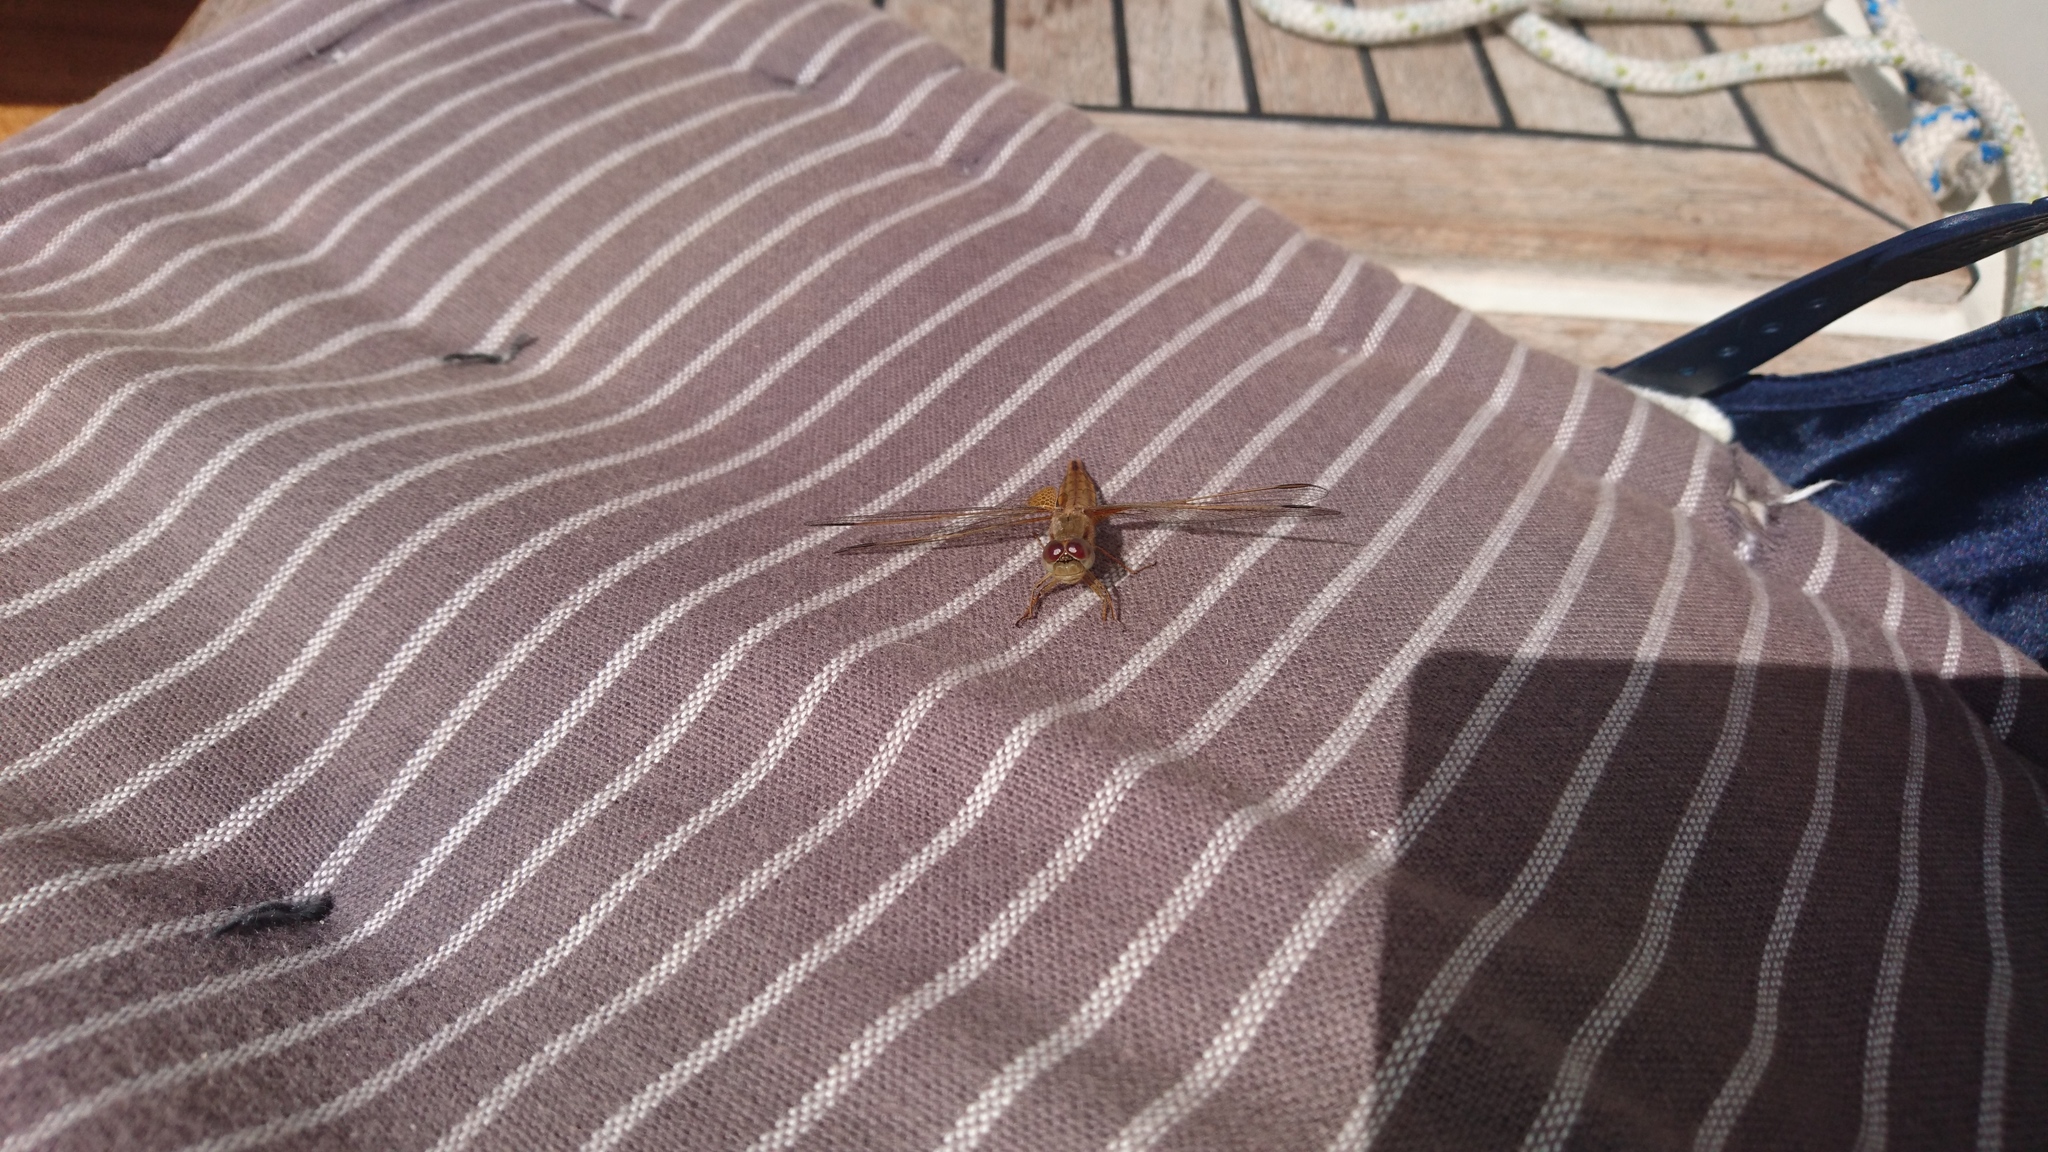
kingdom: Animalia
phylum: Arthropoda
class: Insecta
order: Odonata
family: Libellulidae
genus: Crocothemis
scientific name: Crocothemis erythraea
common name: Scarlet dragonfly
